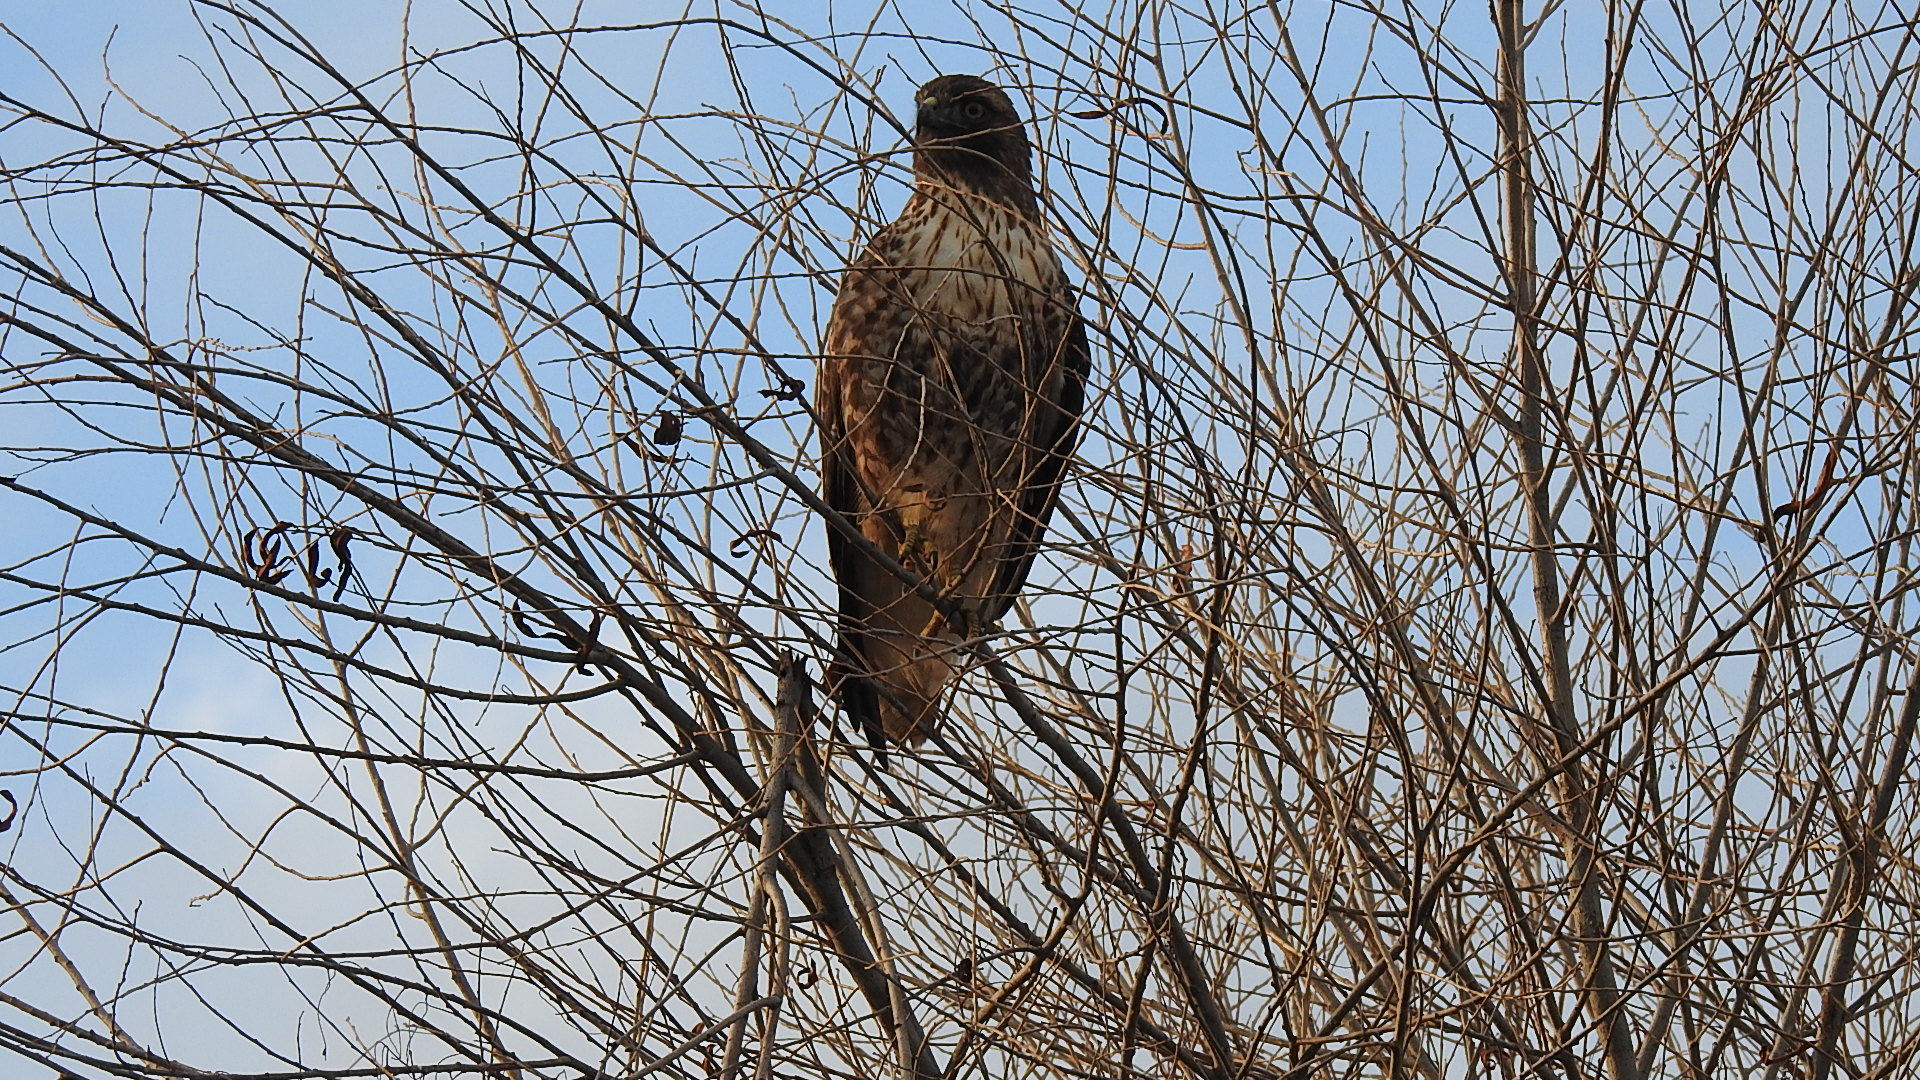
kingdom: Animalia
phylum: Chordata
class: Aves
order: Accipitriformes
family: Accipitridae
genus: Buteo
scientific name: Buteo jamaicensis
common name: Red-tailed hawk
